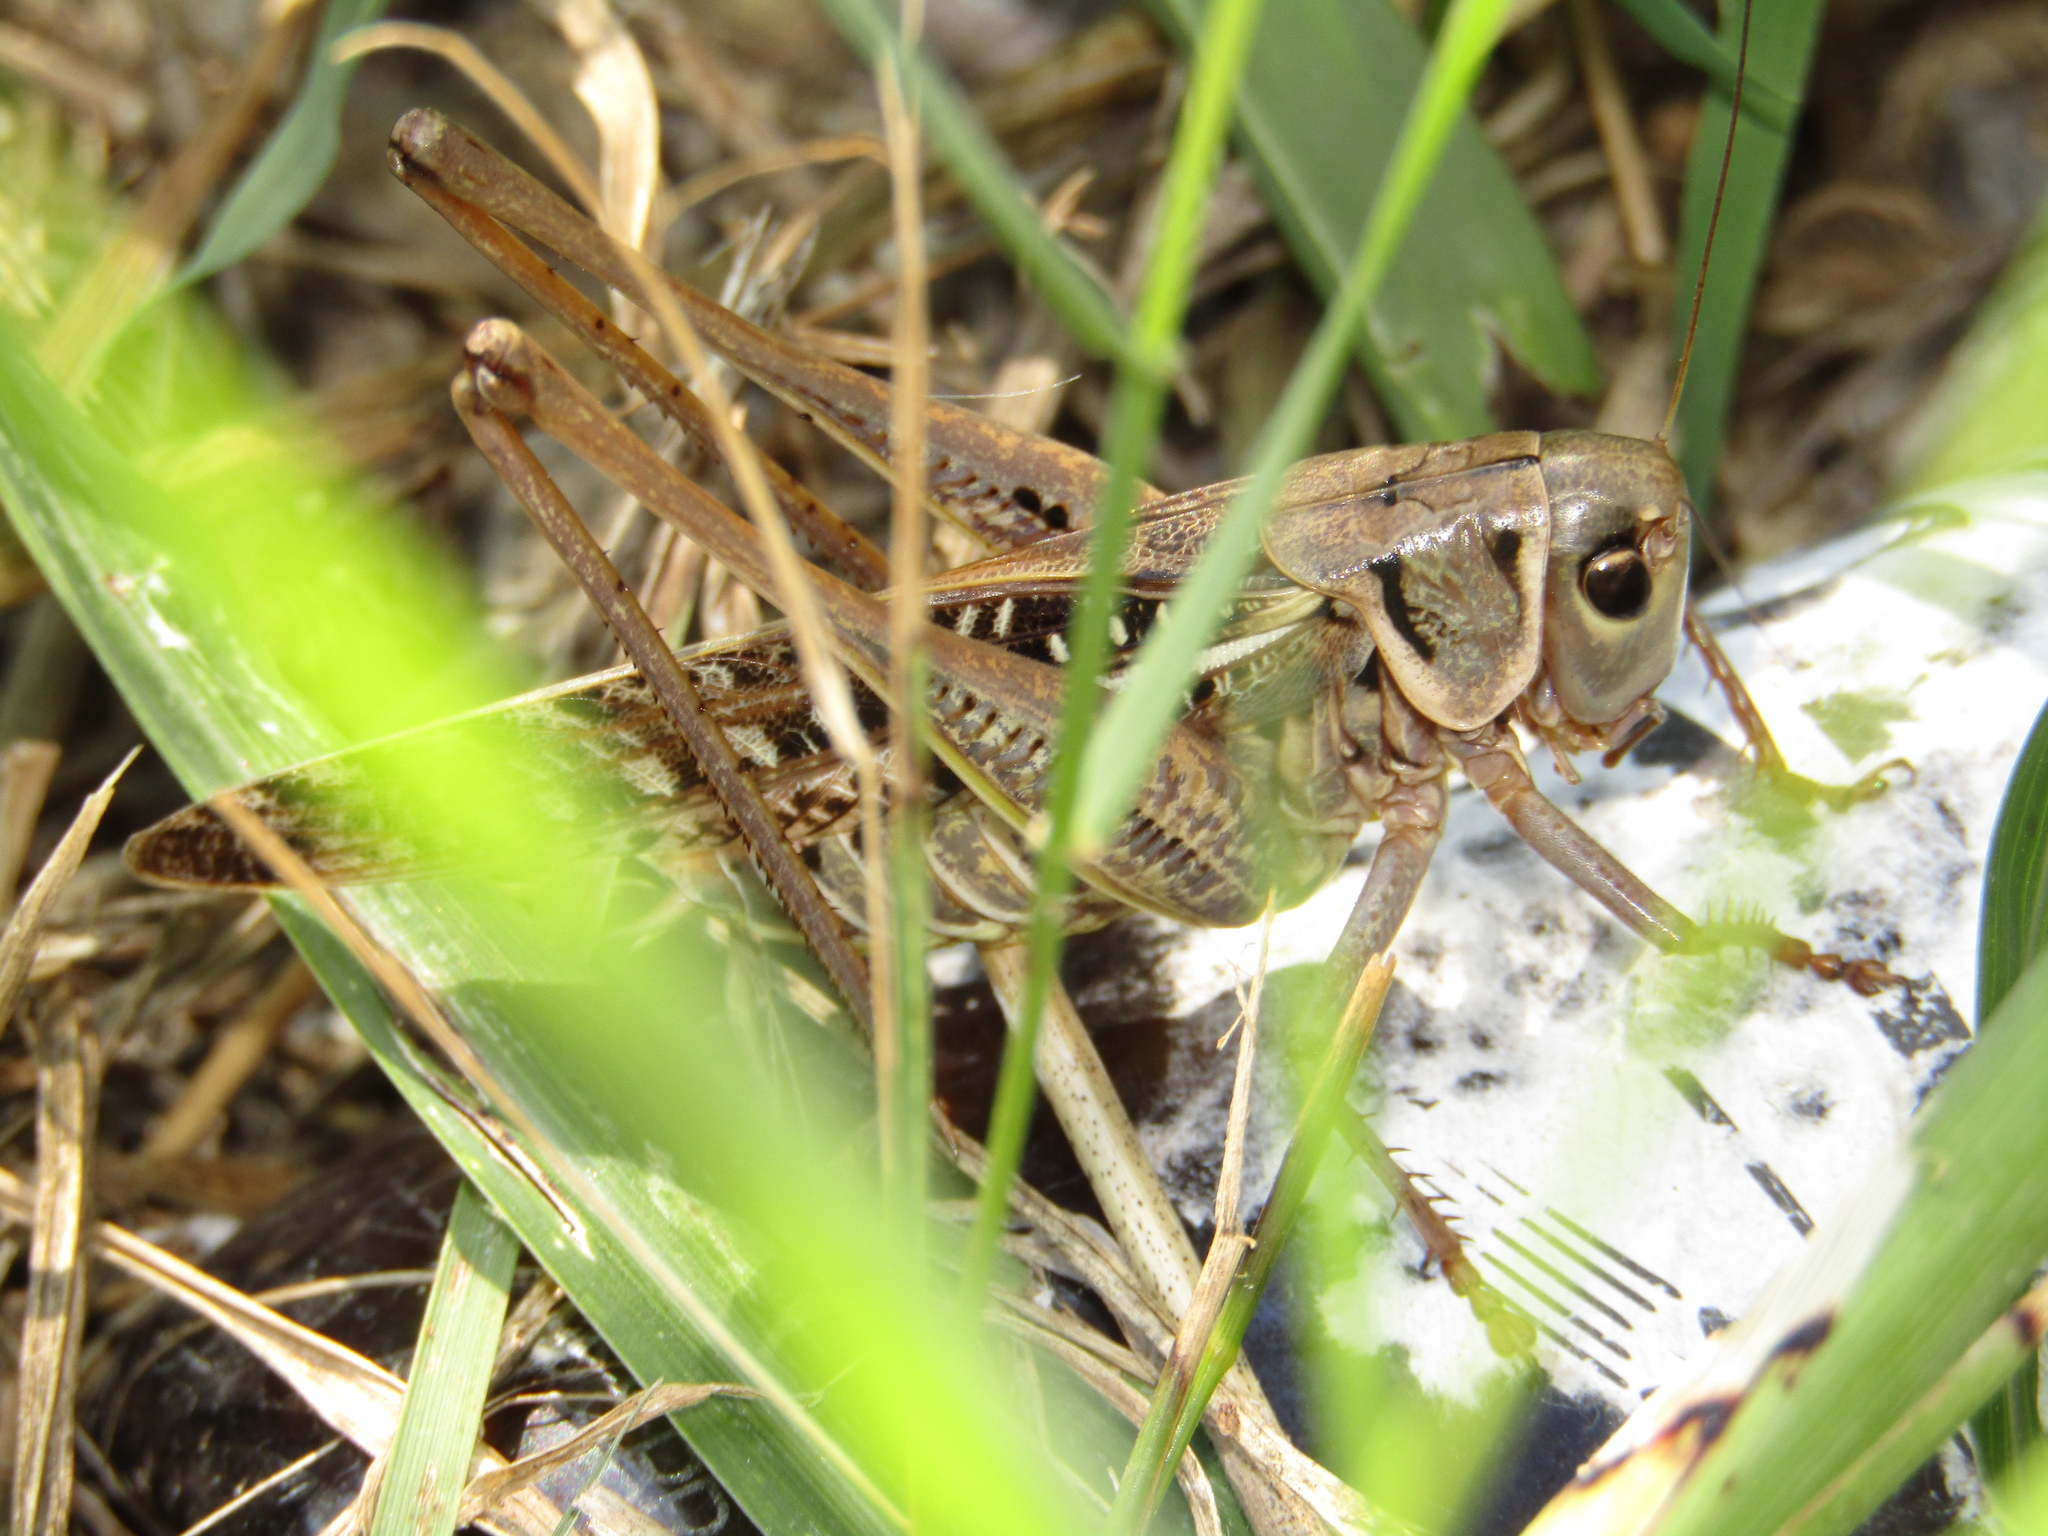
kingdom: Animalia
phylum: Arthropoda
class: Insecta
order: Orthoptera
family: Tettigoniidae
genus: Decticus
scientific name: Decticus albifrons
